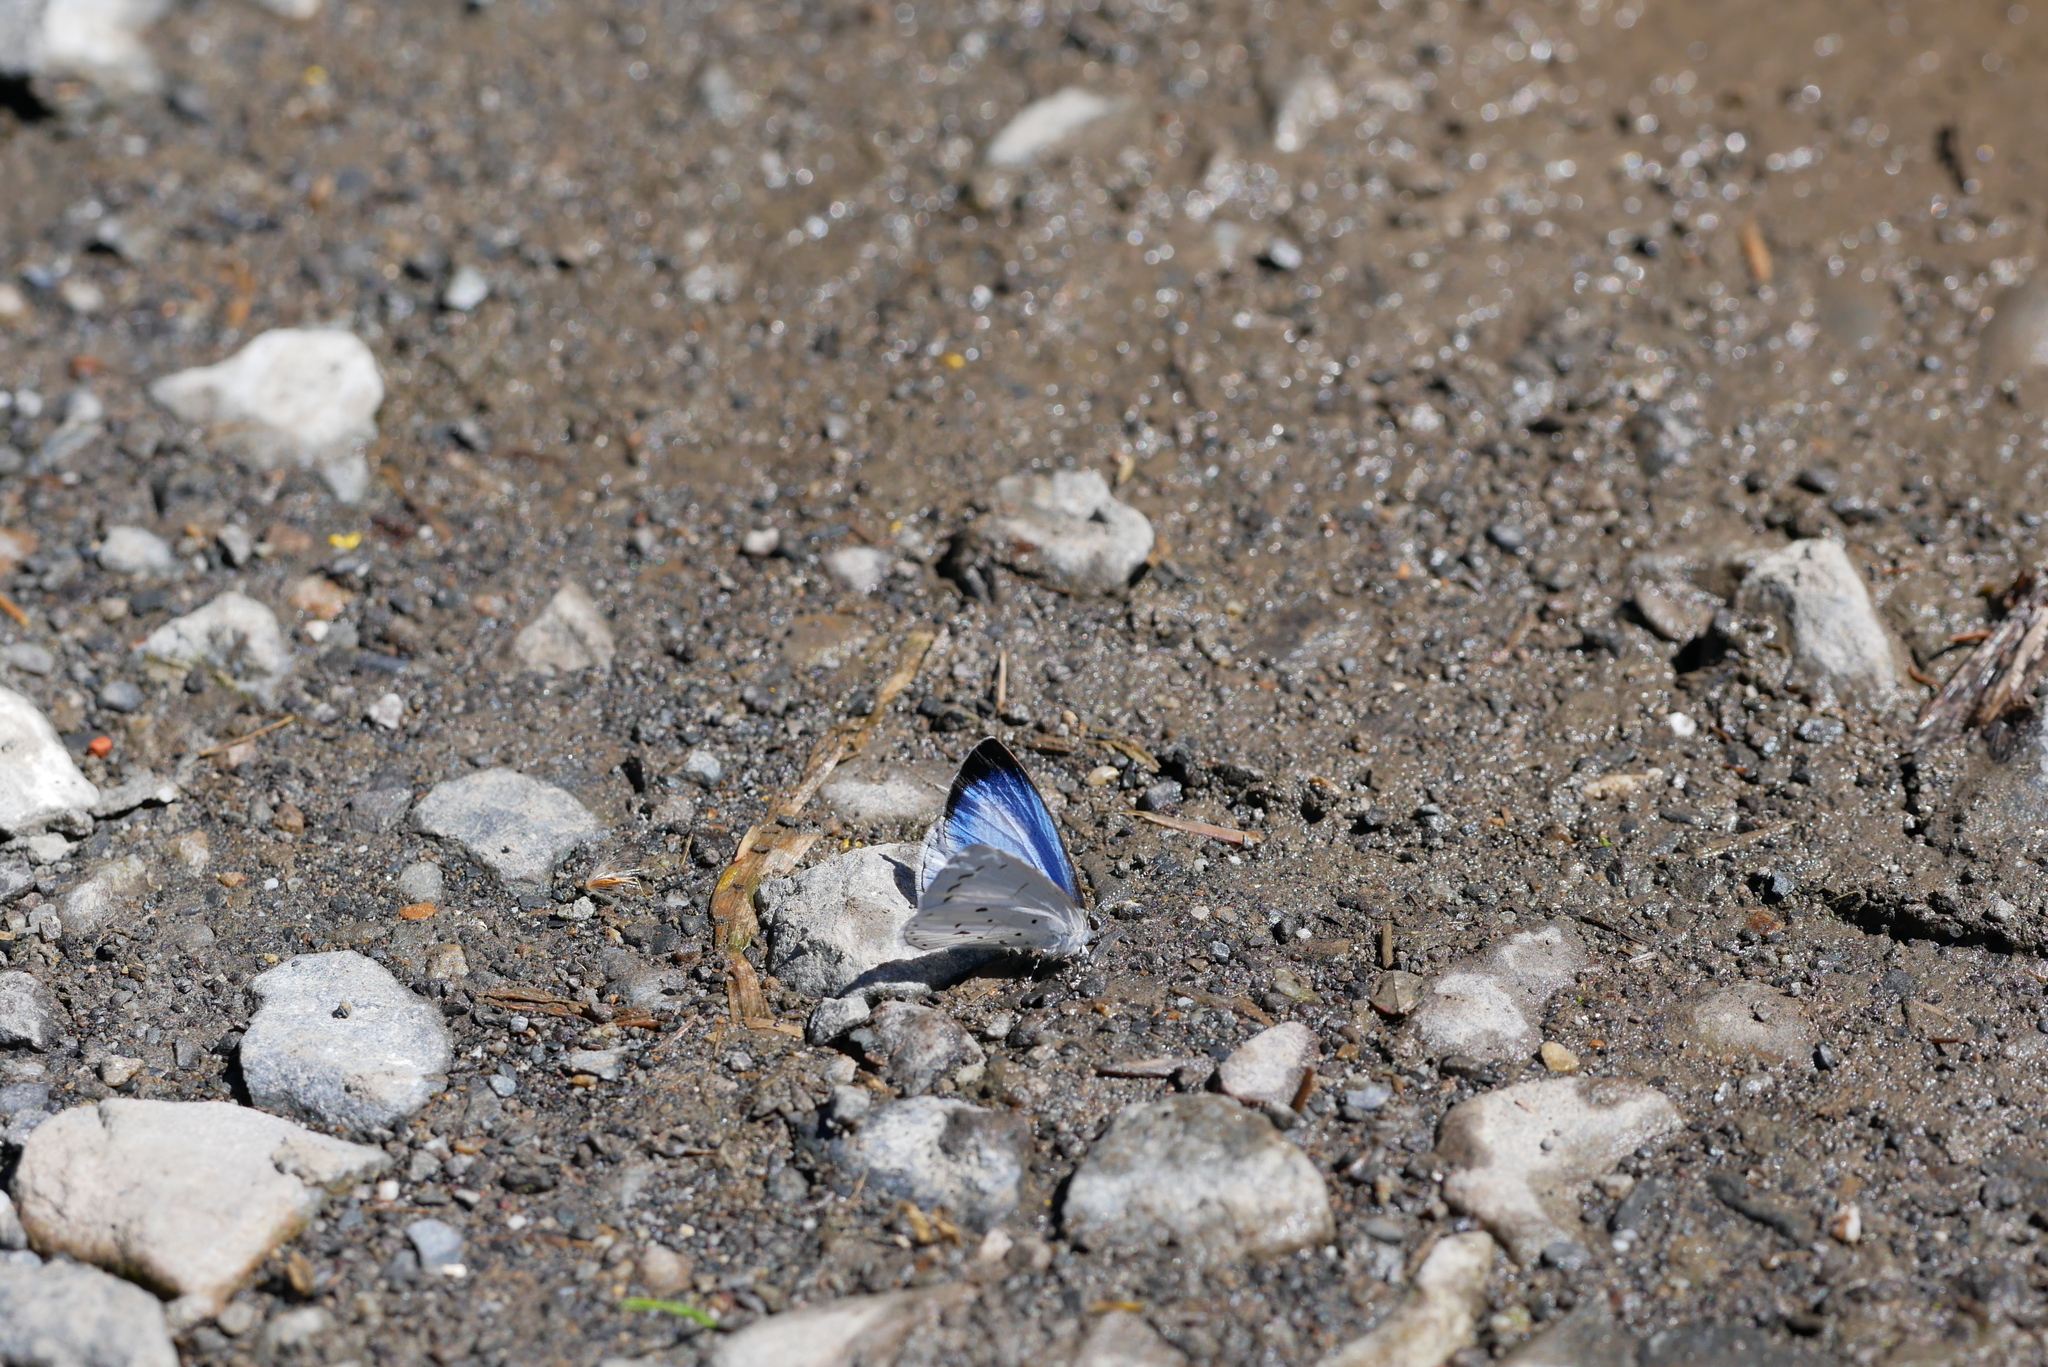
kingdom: Animalia
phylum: Arthropoda
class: Insecta
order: Lepidoptera
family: Lycaenidae
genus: Udara
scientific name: Udara albocaerulea
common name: Albocerulean
